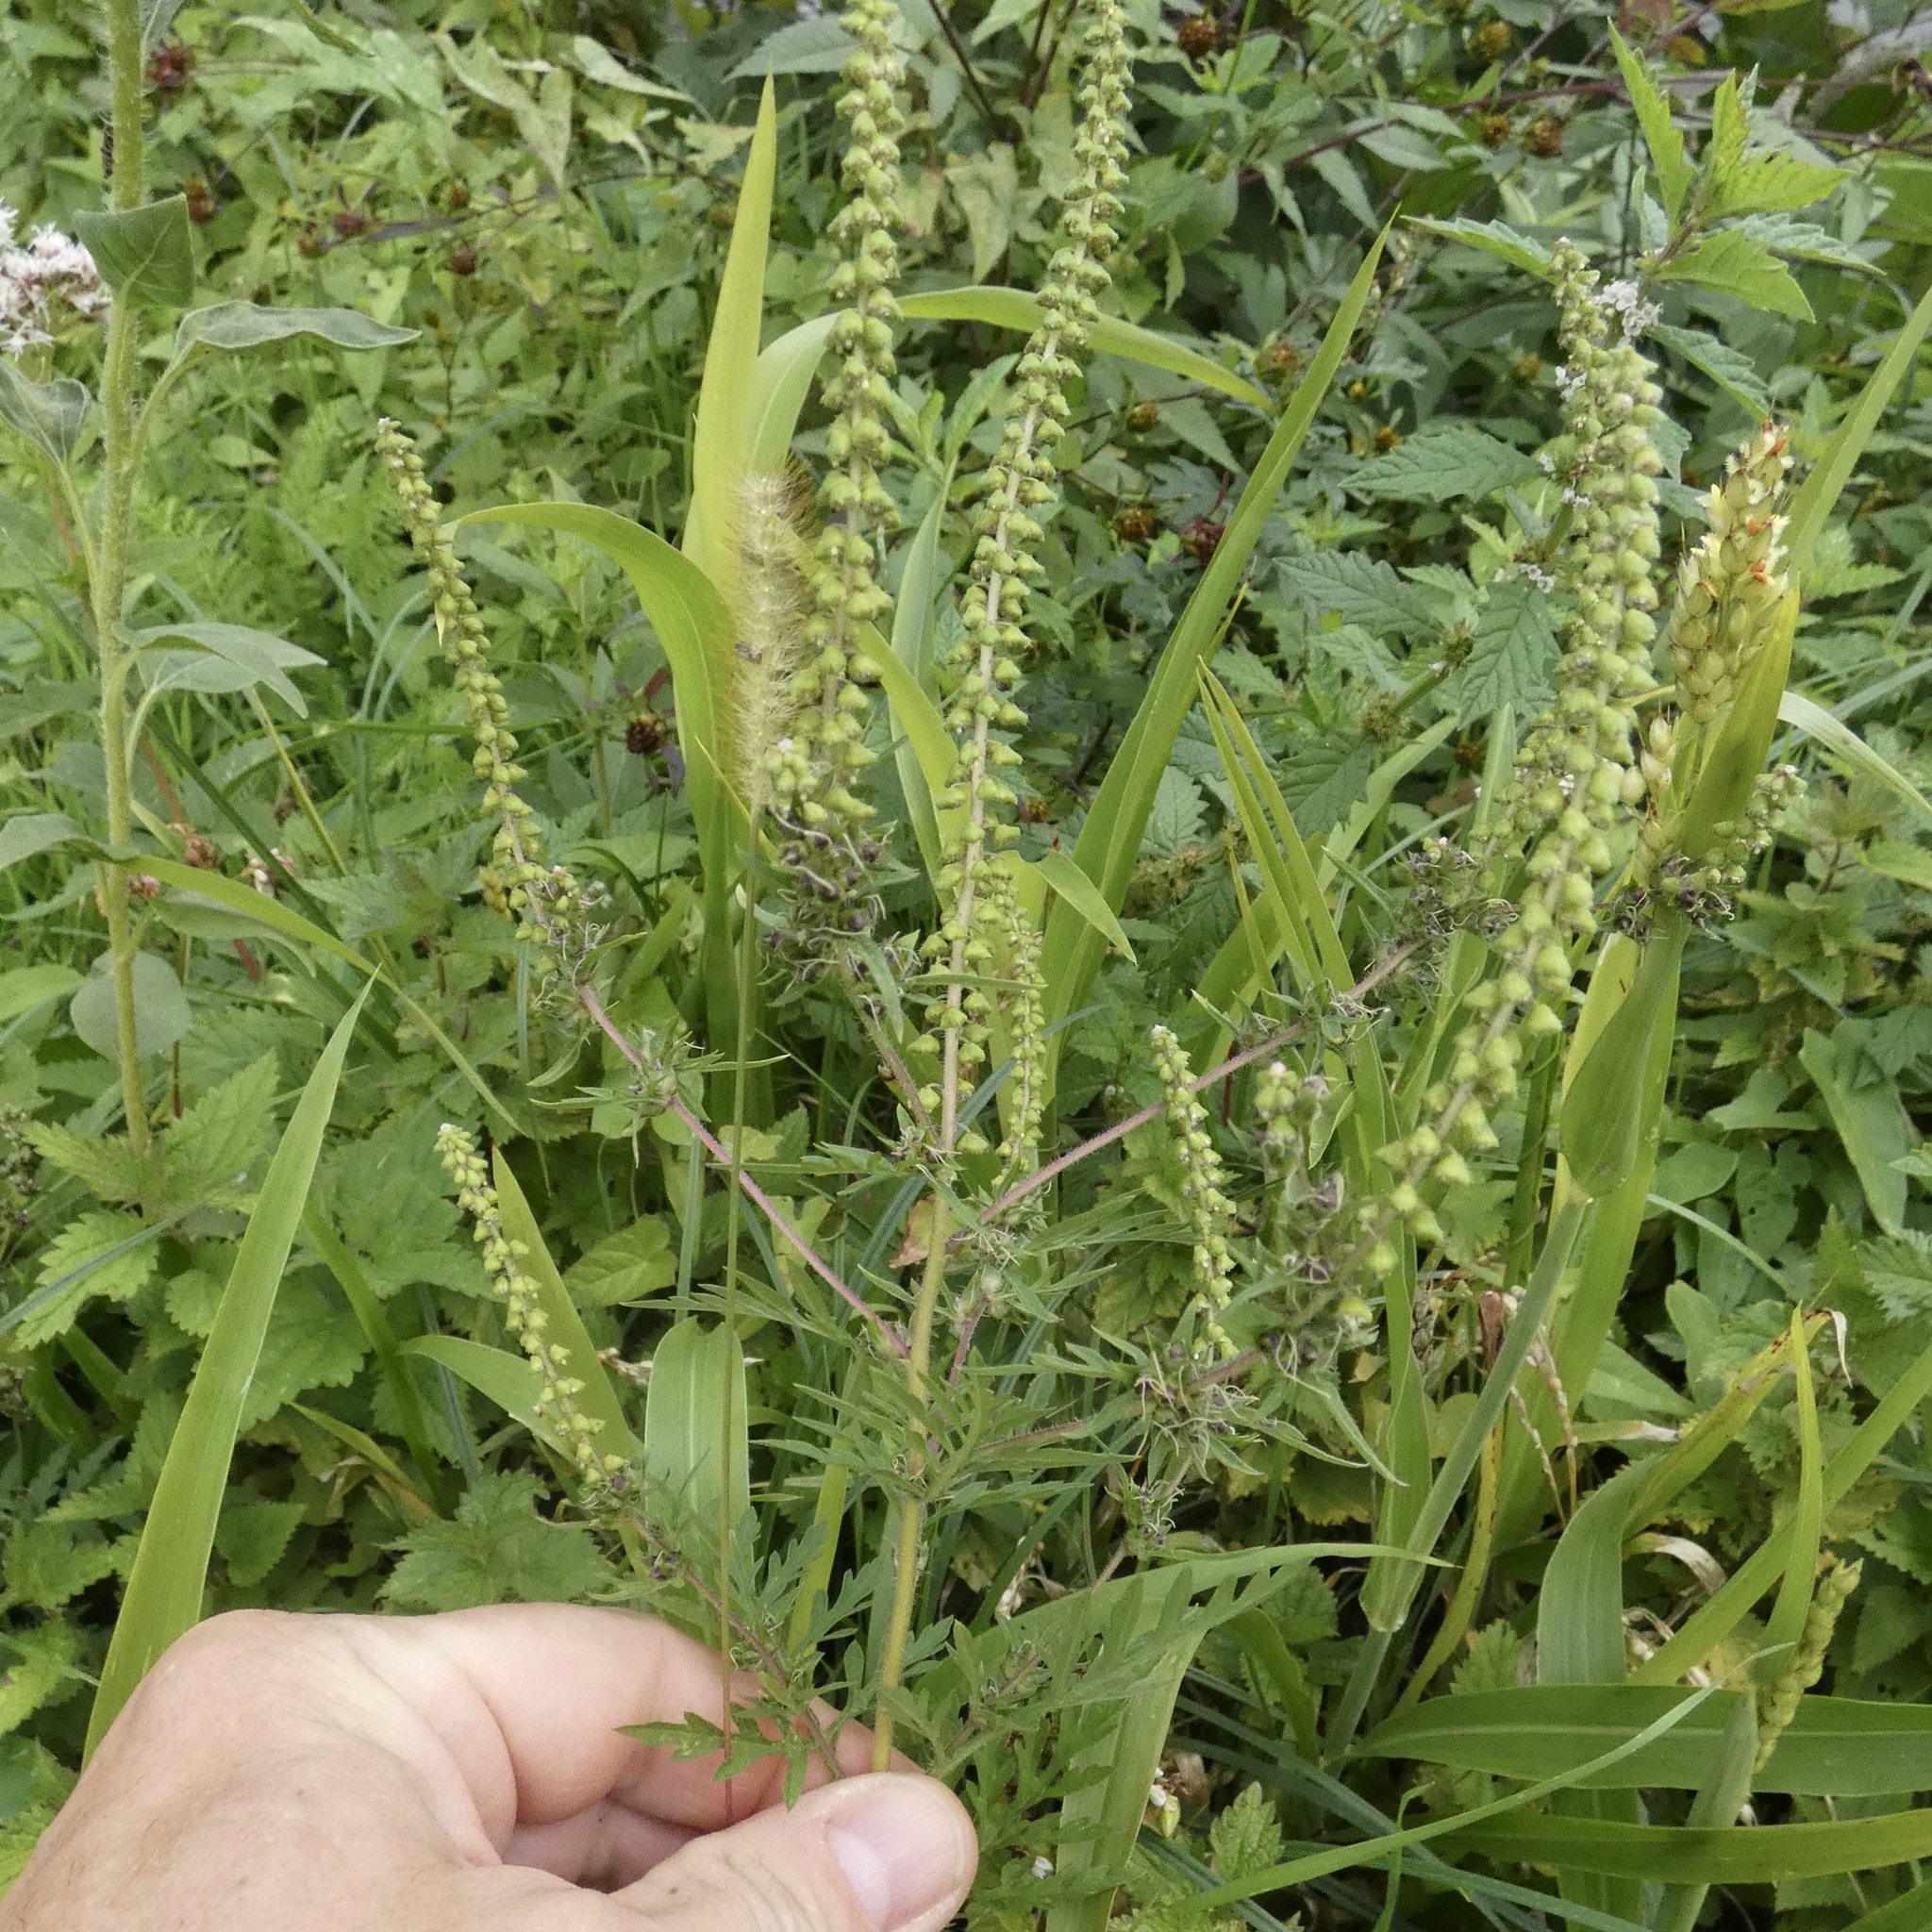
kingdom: Plantae
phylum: Tracheophyta
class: Magnoliopsida
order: Asterales
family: Asteraceae
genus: Ambrosia
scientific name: Ambrosia artemisiifolia
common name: Annual ragweed
